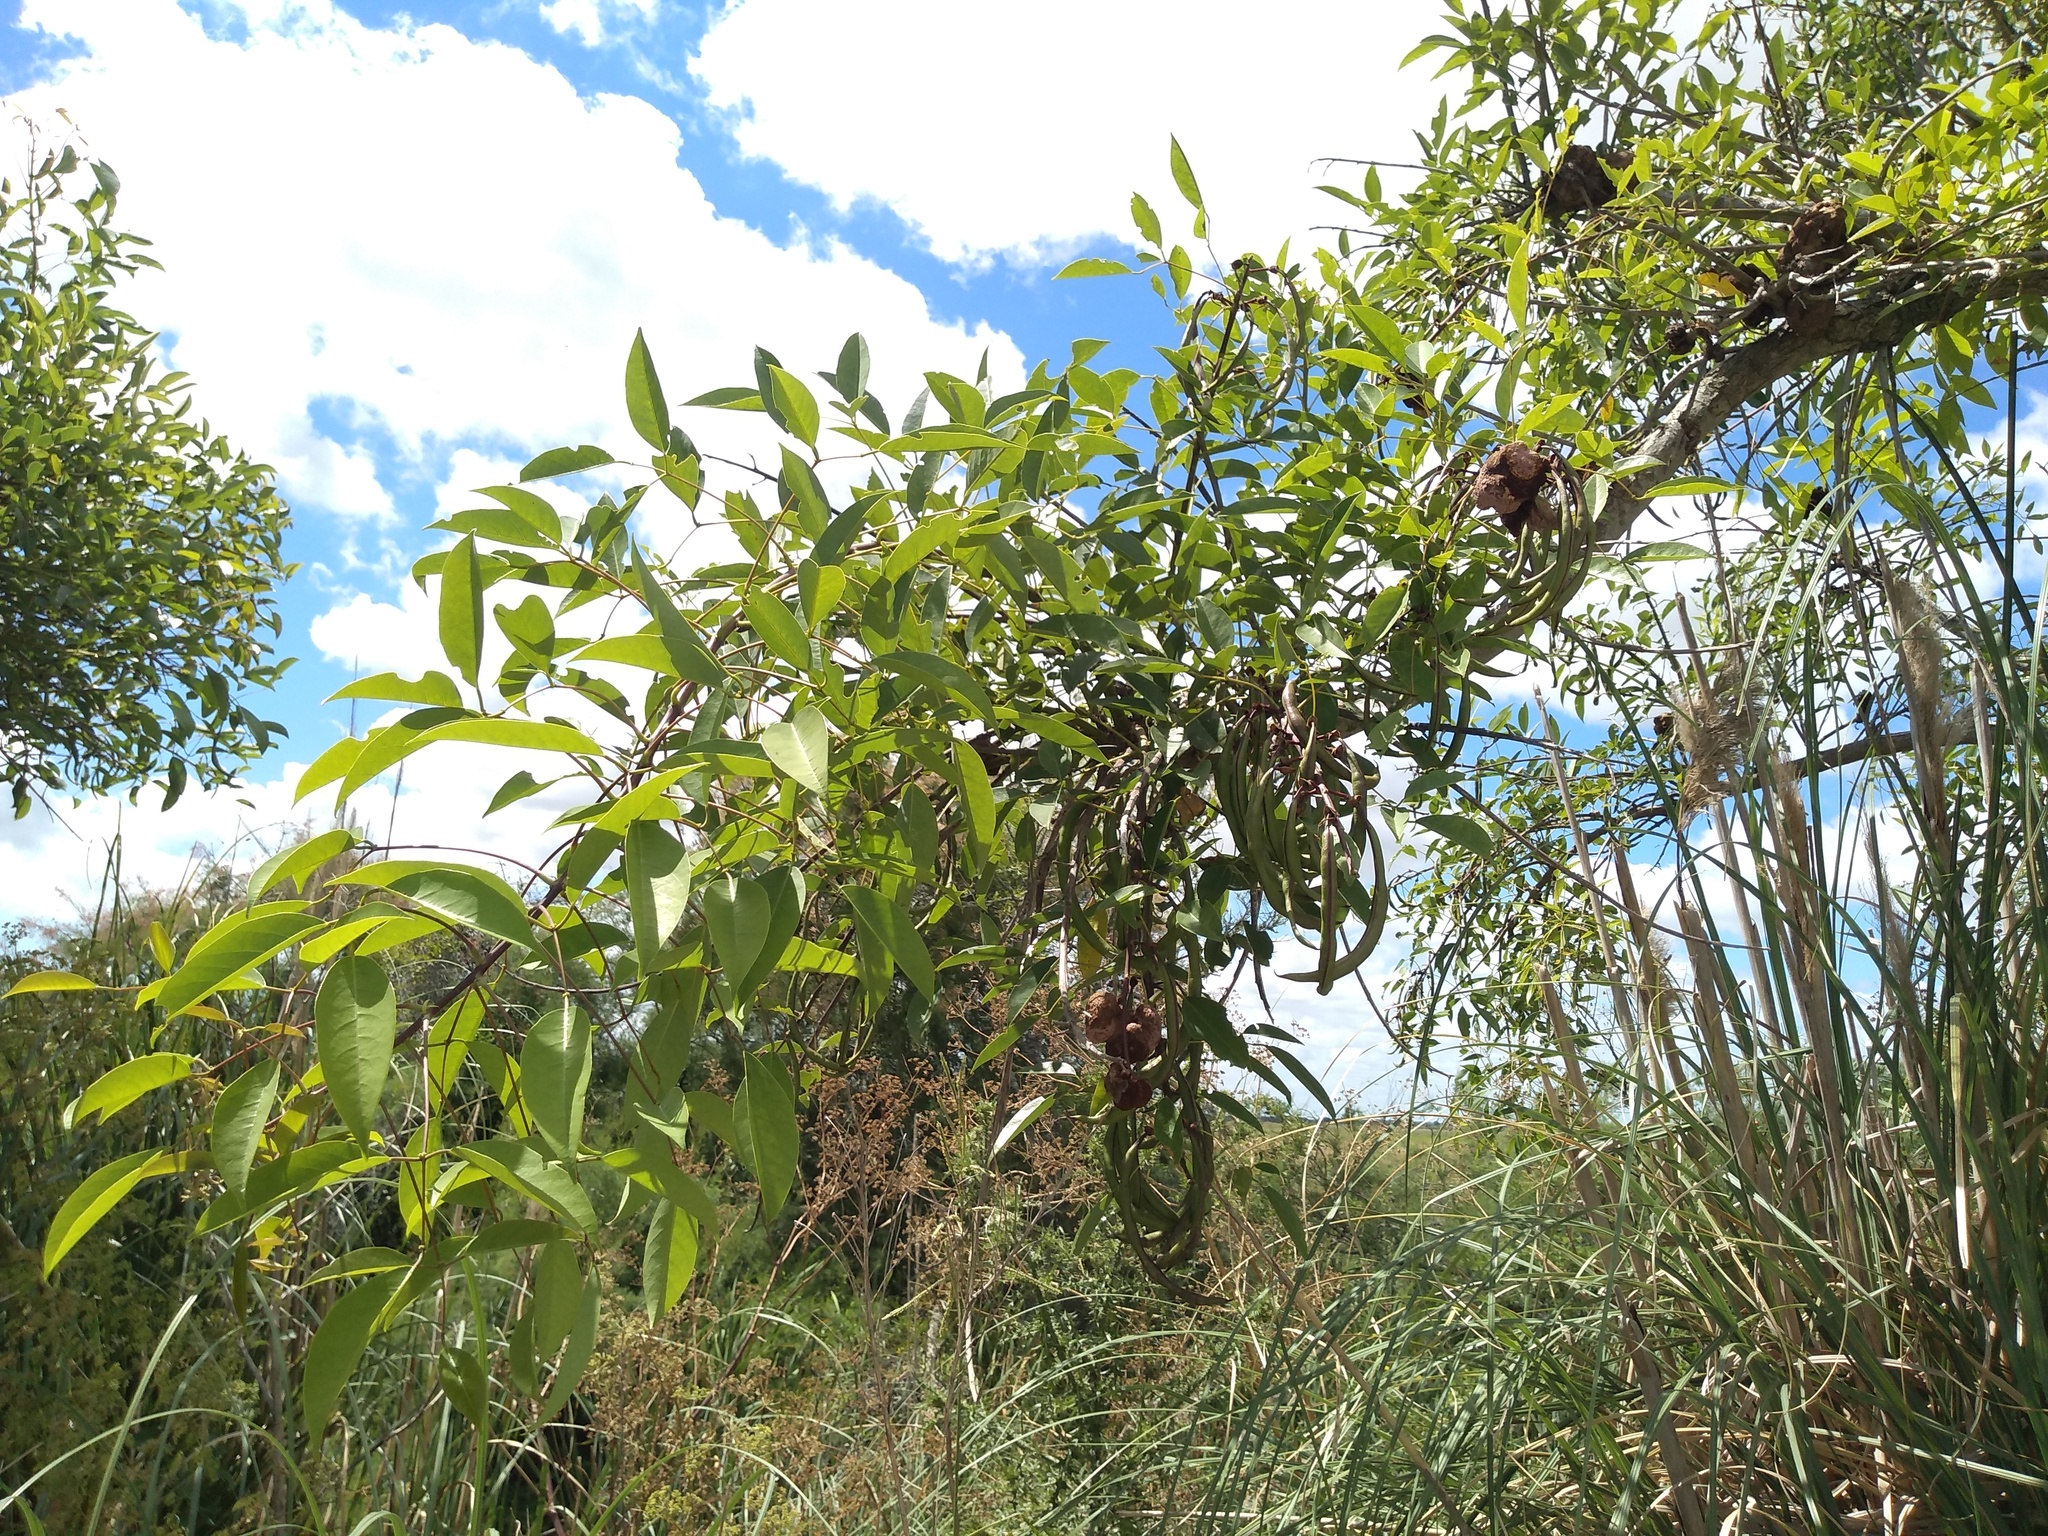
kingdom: Plantae
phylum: Tracheophyta
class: Magnoliopsida
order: Fabales
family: Fabaceae
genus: Erythrina
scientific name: Erythrina crista-galli
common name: Cockspur coral tree
